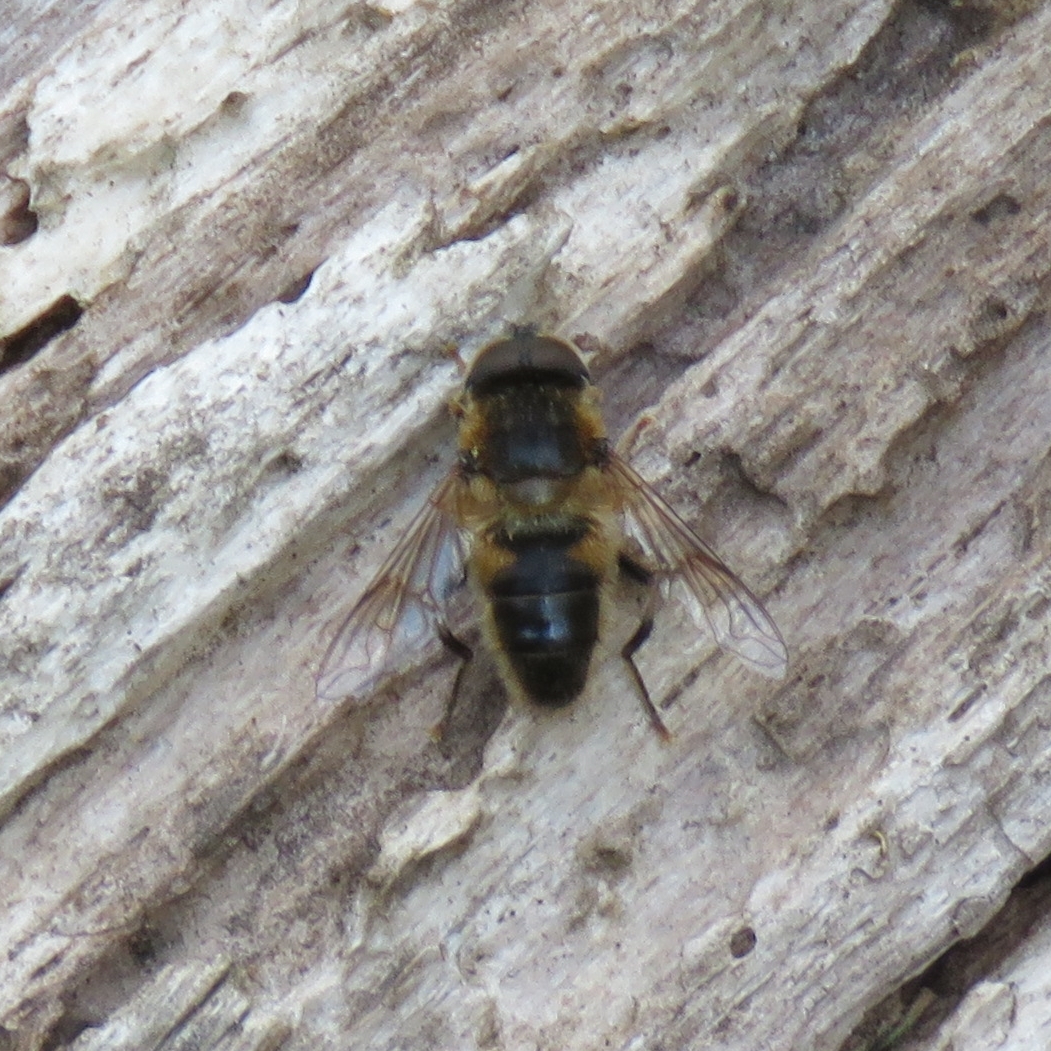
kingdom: Animalia
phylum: Arthropoda
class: Insecta
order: Diptera
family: Syrphidae
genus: Eristalis
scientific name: Eristalis pertinax
